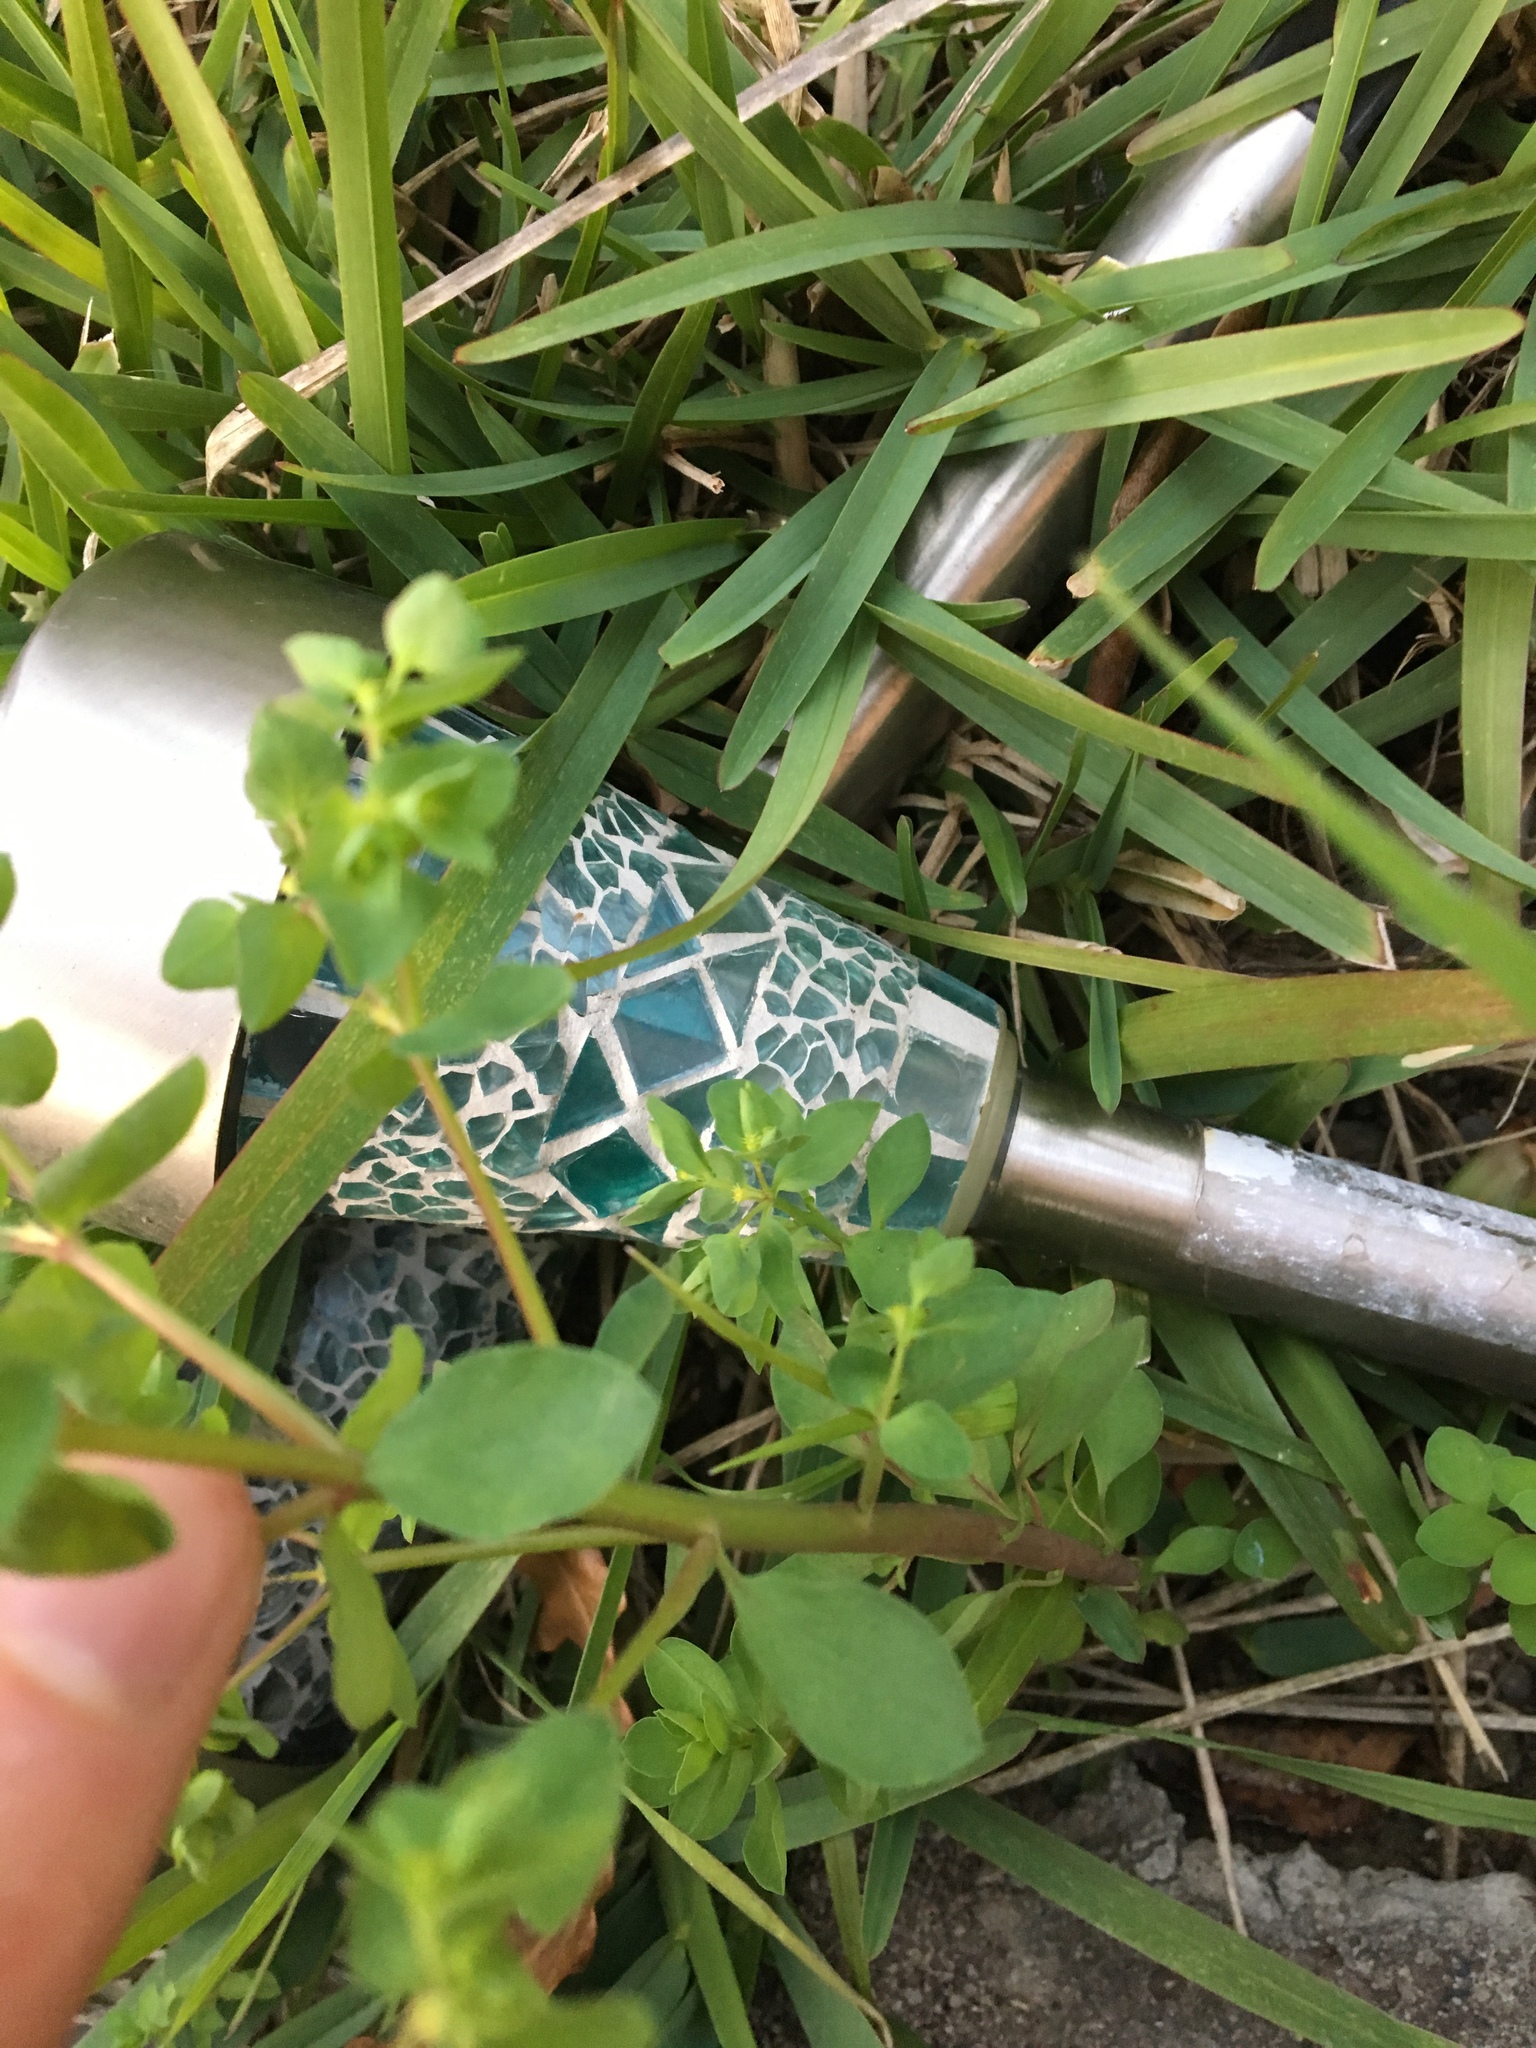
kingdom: Plantae
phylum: Tracheophyta
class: Magnoliopsida
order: Malpighiales
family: Euphorbiaceae
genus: Euphorbia
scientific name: Euphorbia peplus
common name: Petty spurge
